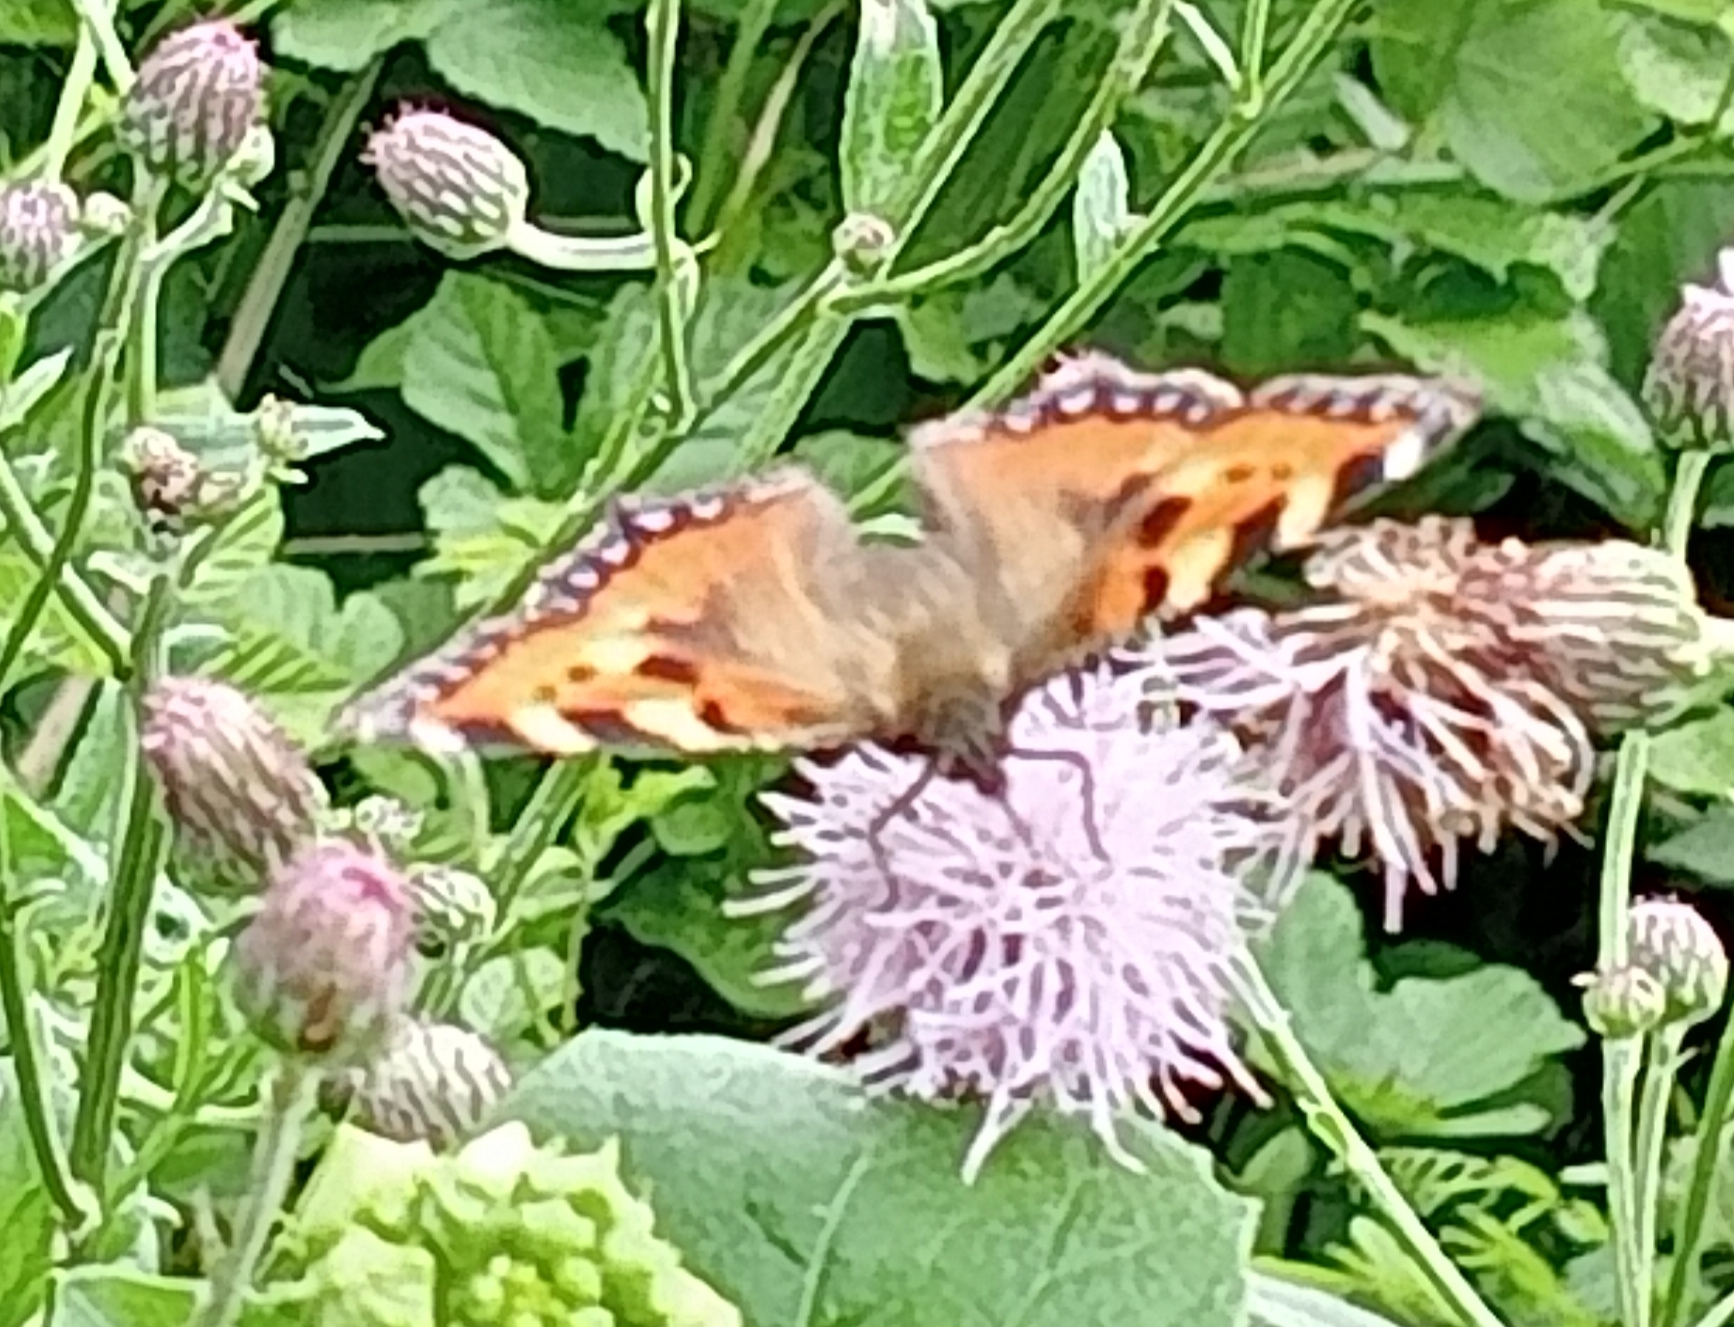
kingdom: Animalia
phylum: Arthropoda
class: Insecta
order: Lepidoptera
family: Nymphalidae
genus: Aglais
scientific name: Aglais urticae
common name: Small tortoiseshell
